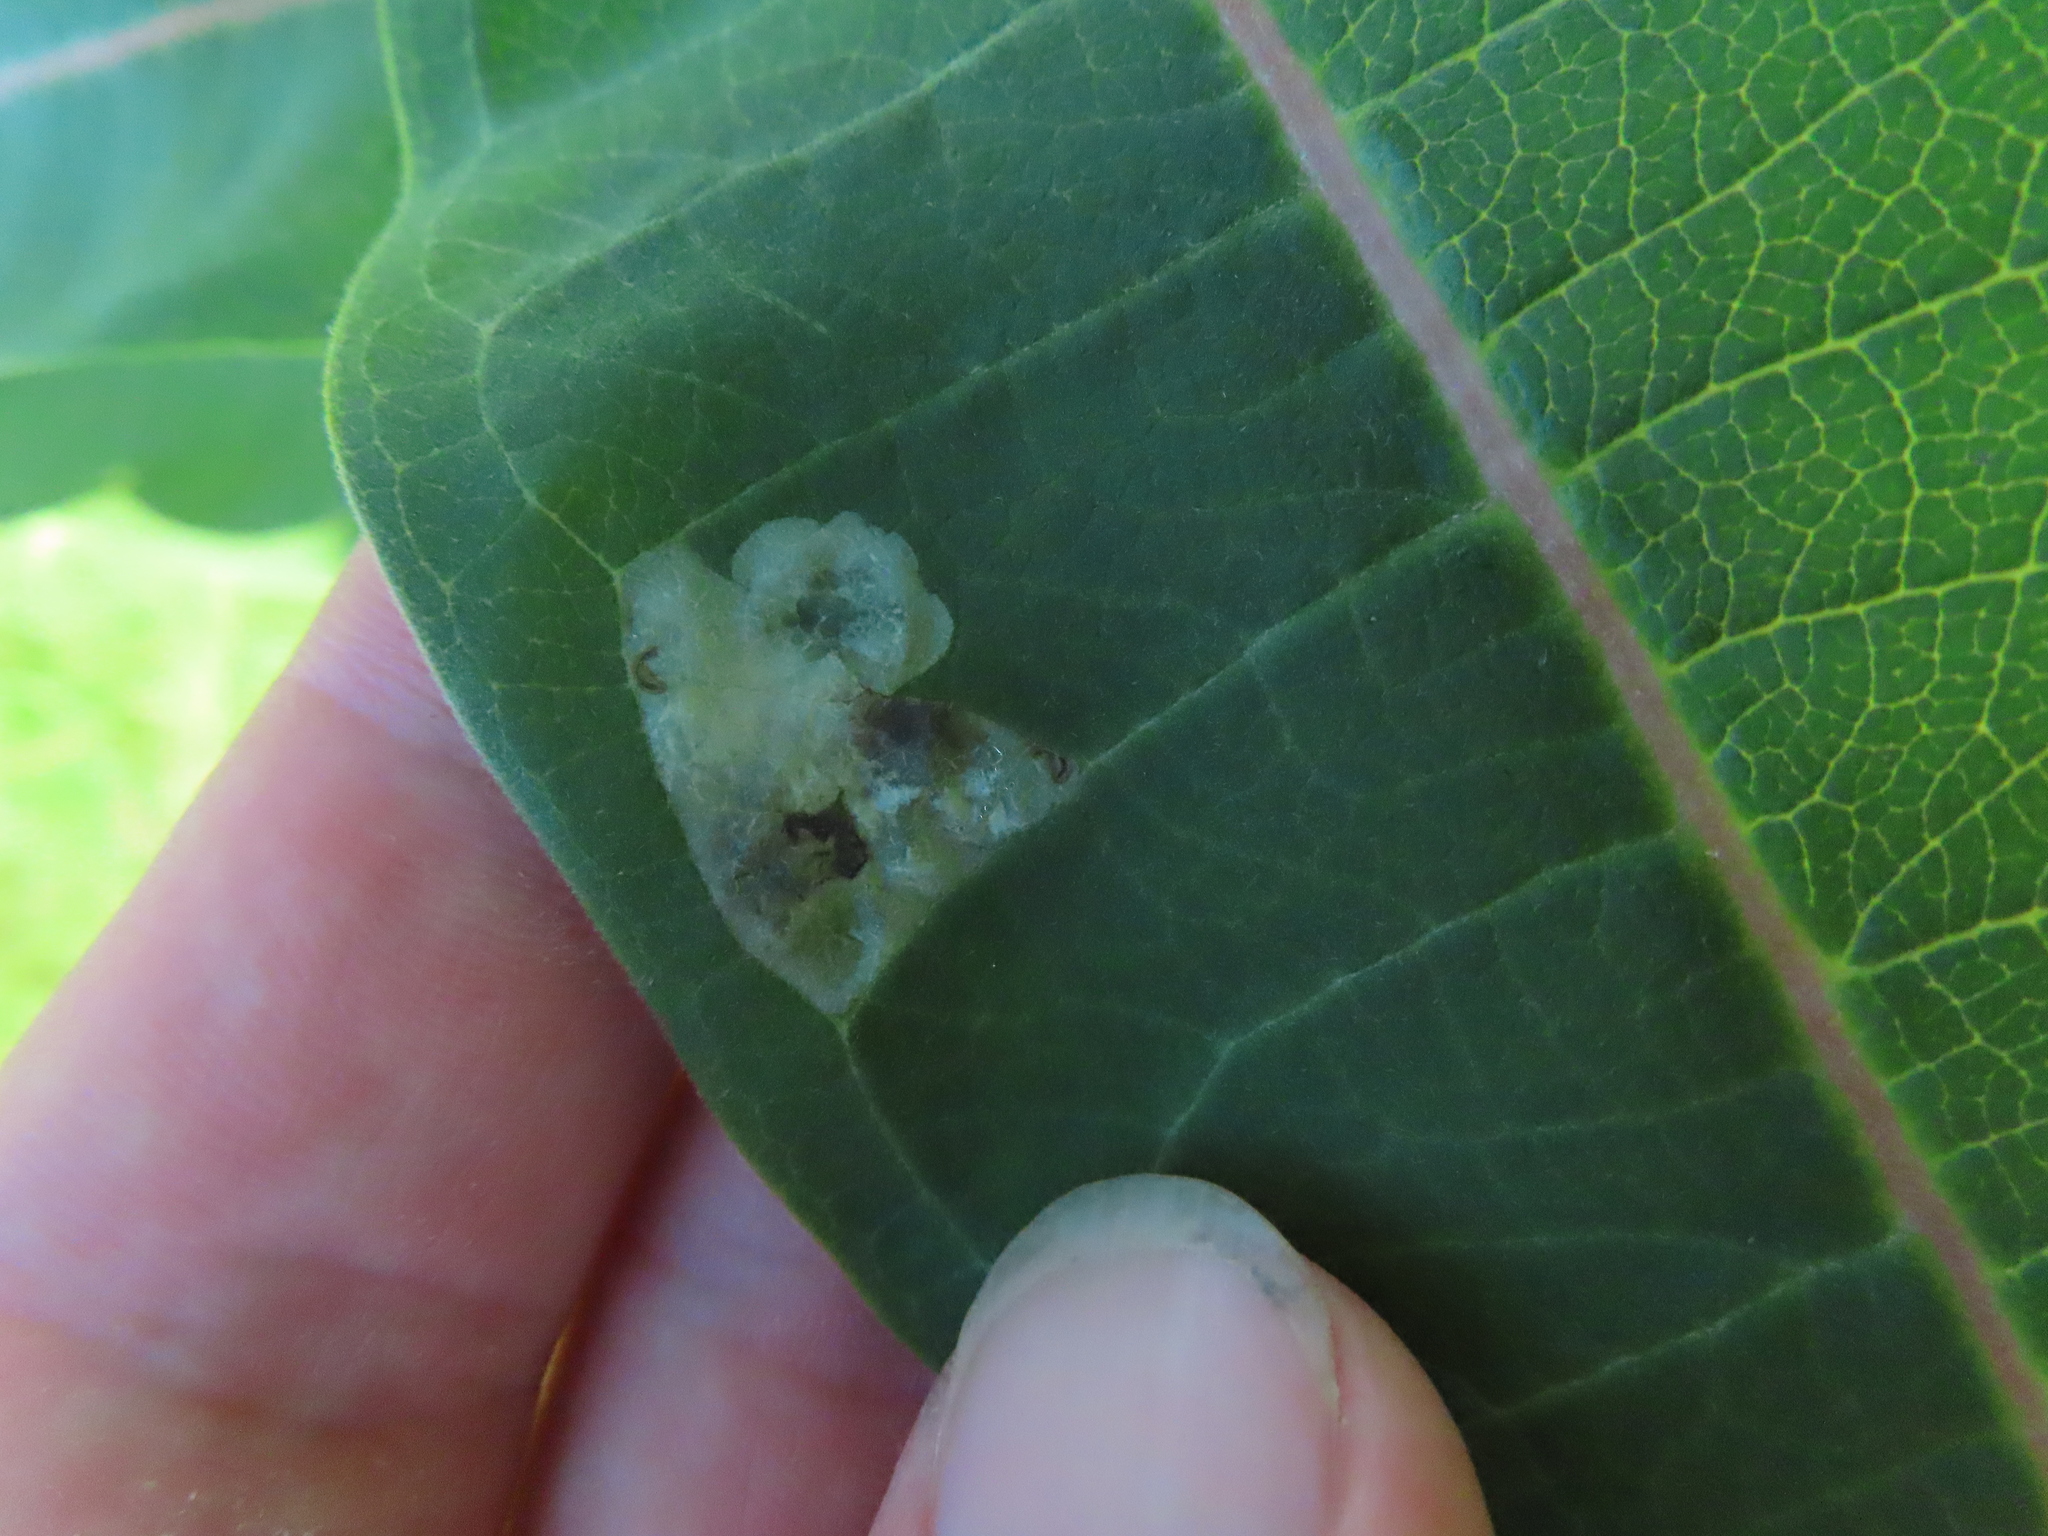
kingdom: Animalia
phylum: Arthropoda
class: Insecta
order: Diptera
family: Agromyzidae
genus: Liriomyza
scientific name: Liriomyza asclepiadis
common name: Milkweed leaf-miner fly
